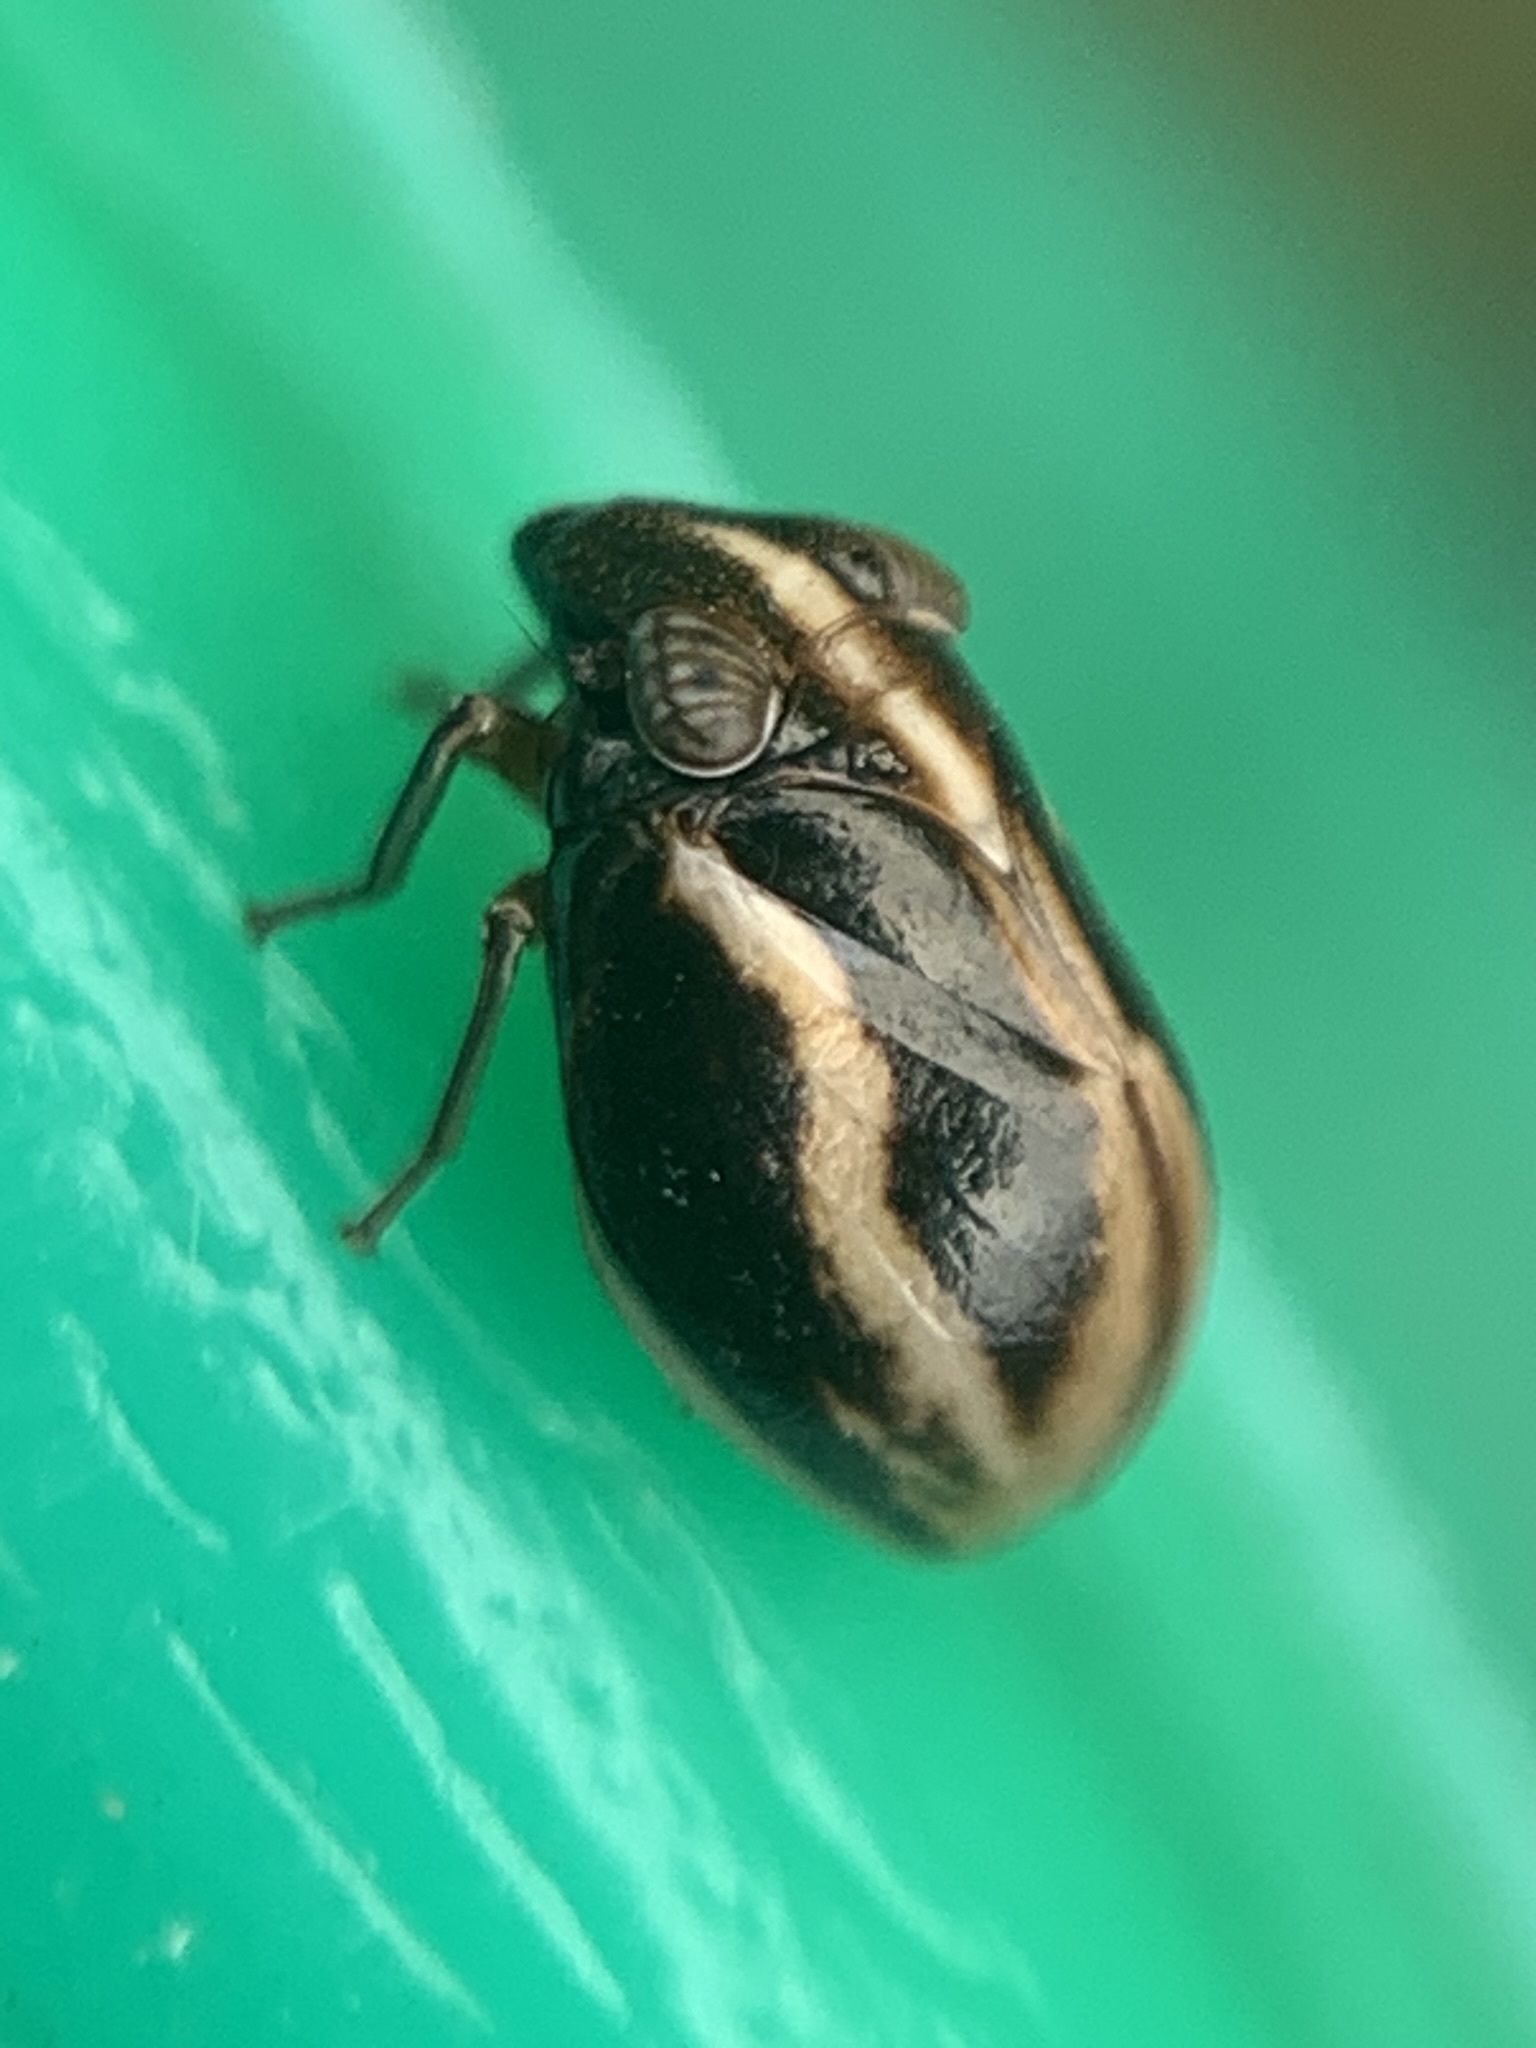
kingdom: Animalia
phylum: Arthropoda
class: Insecta
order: Hemiptera
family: Issidae
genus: Argepara
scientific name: Argepara lyra
